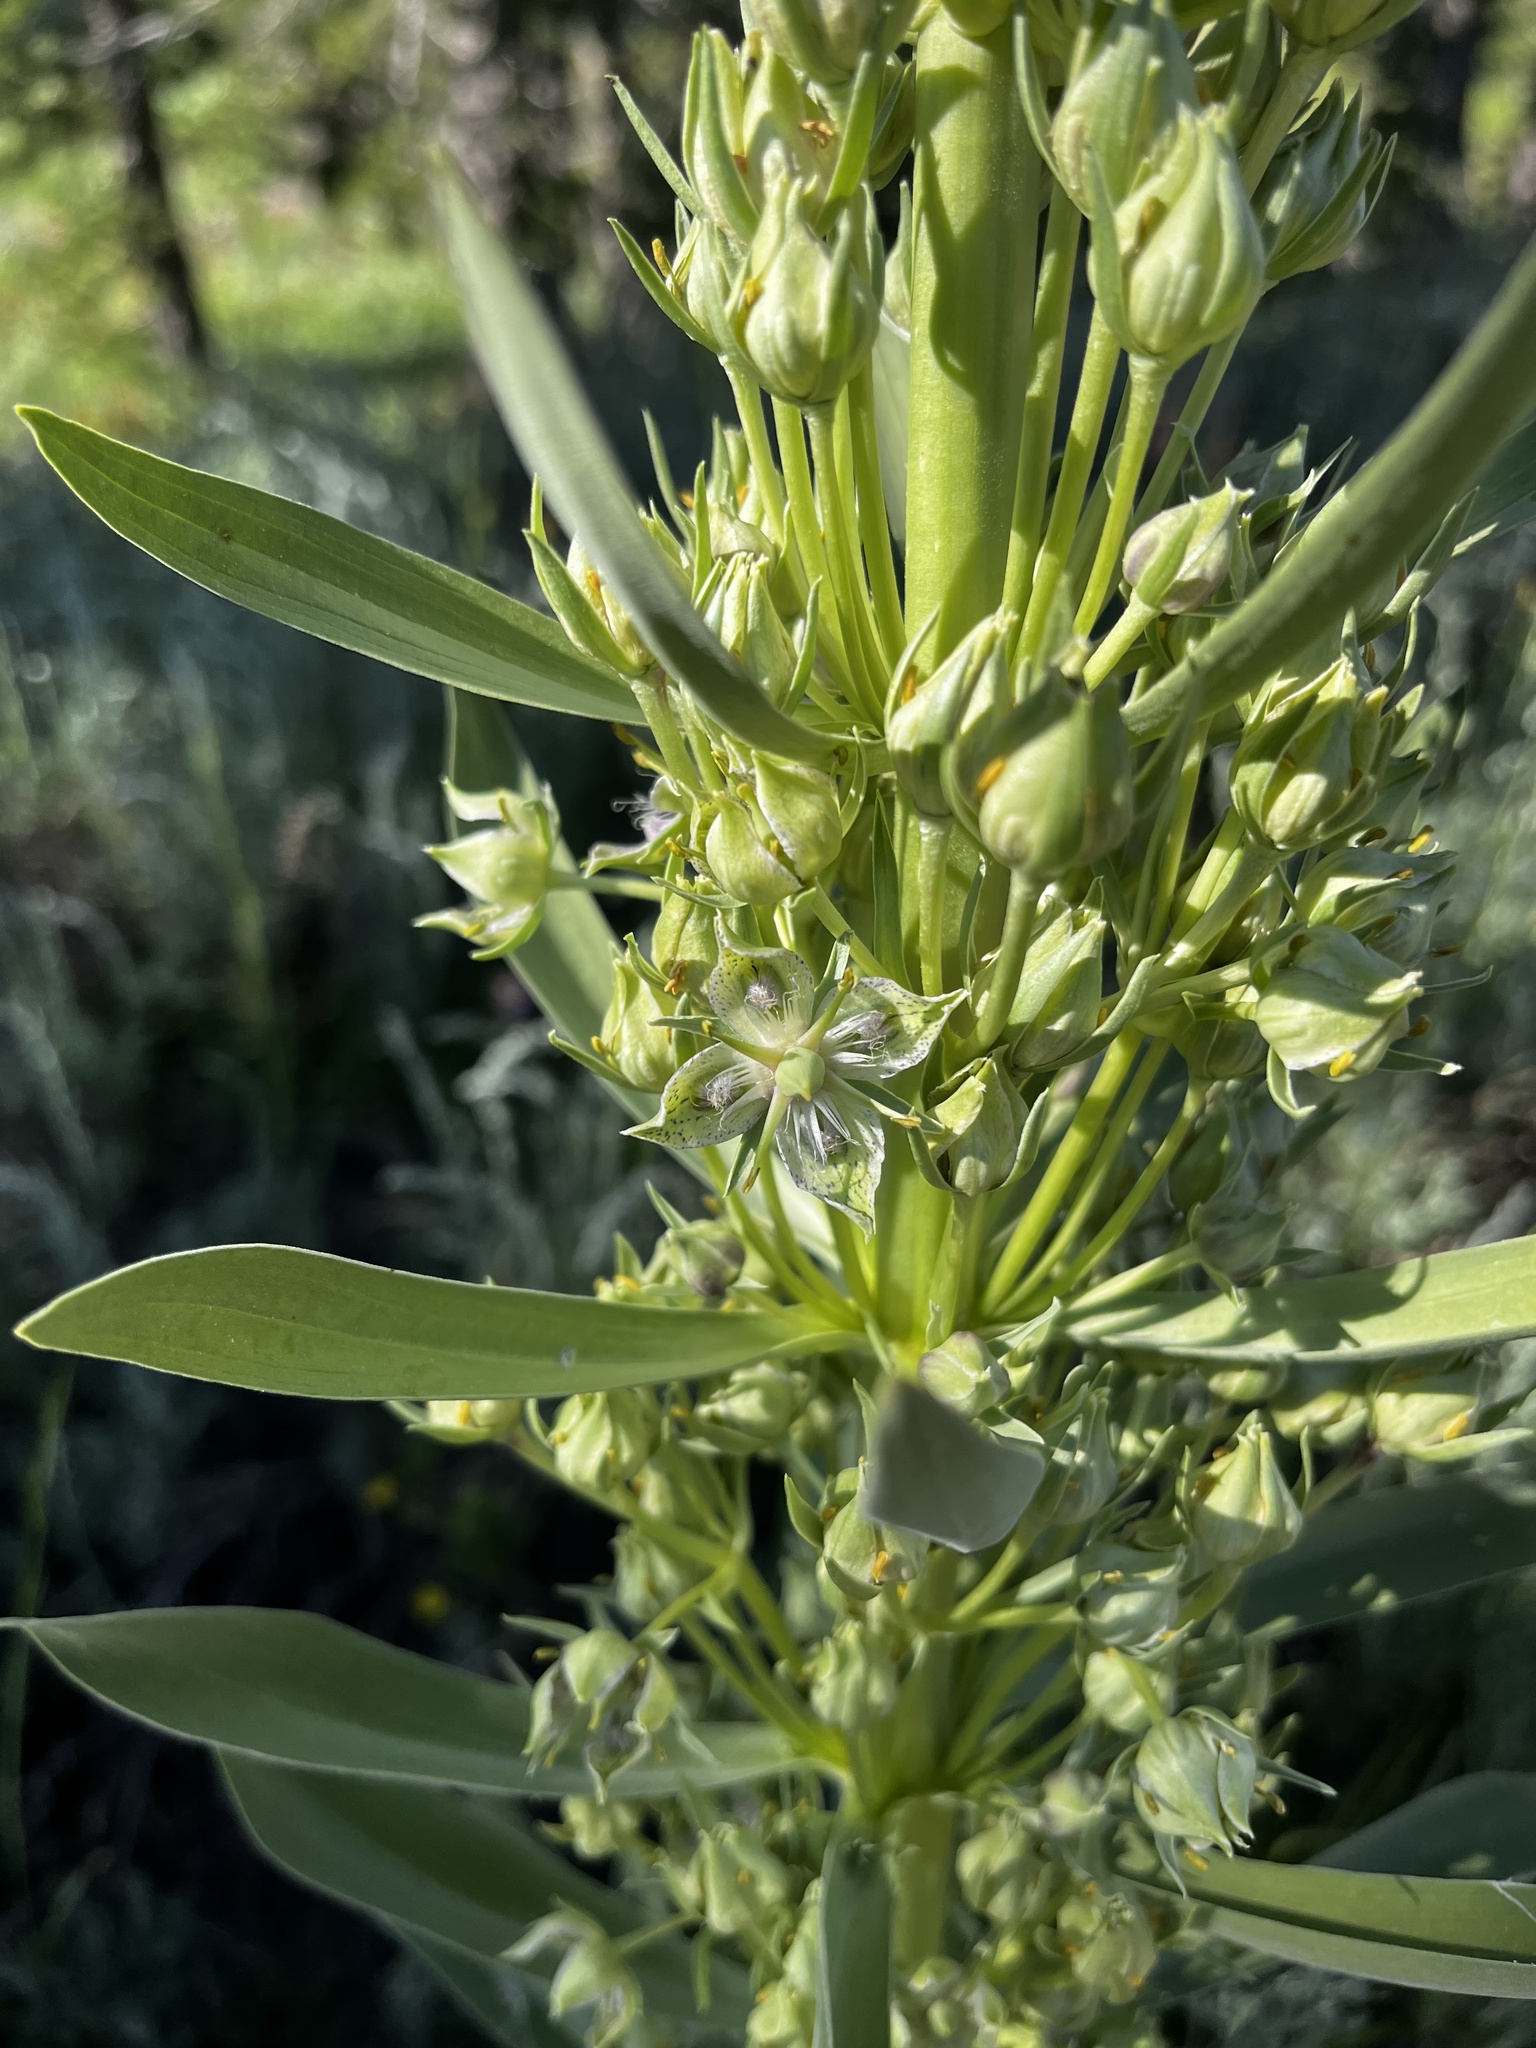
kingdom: Plantae
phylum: Tracheophyta
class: Magnoliopsida
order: Gentianales
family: Gentianaceae
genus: Frasera
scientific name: Frasera speciosa
